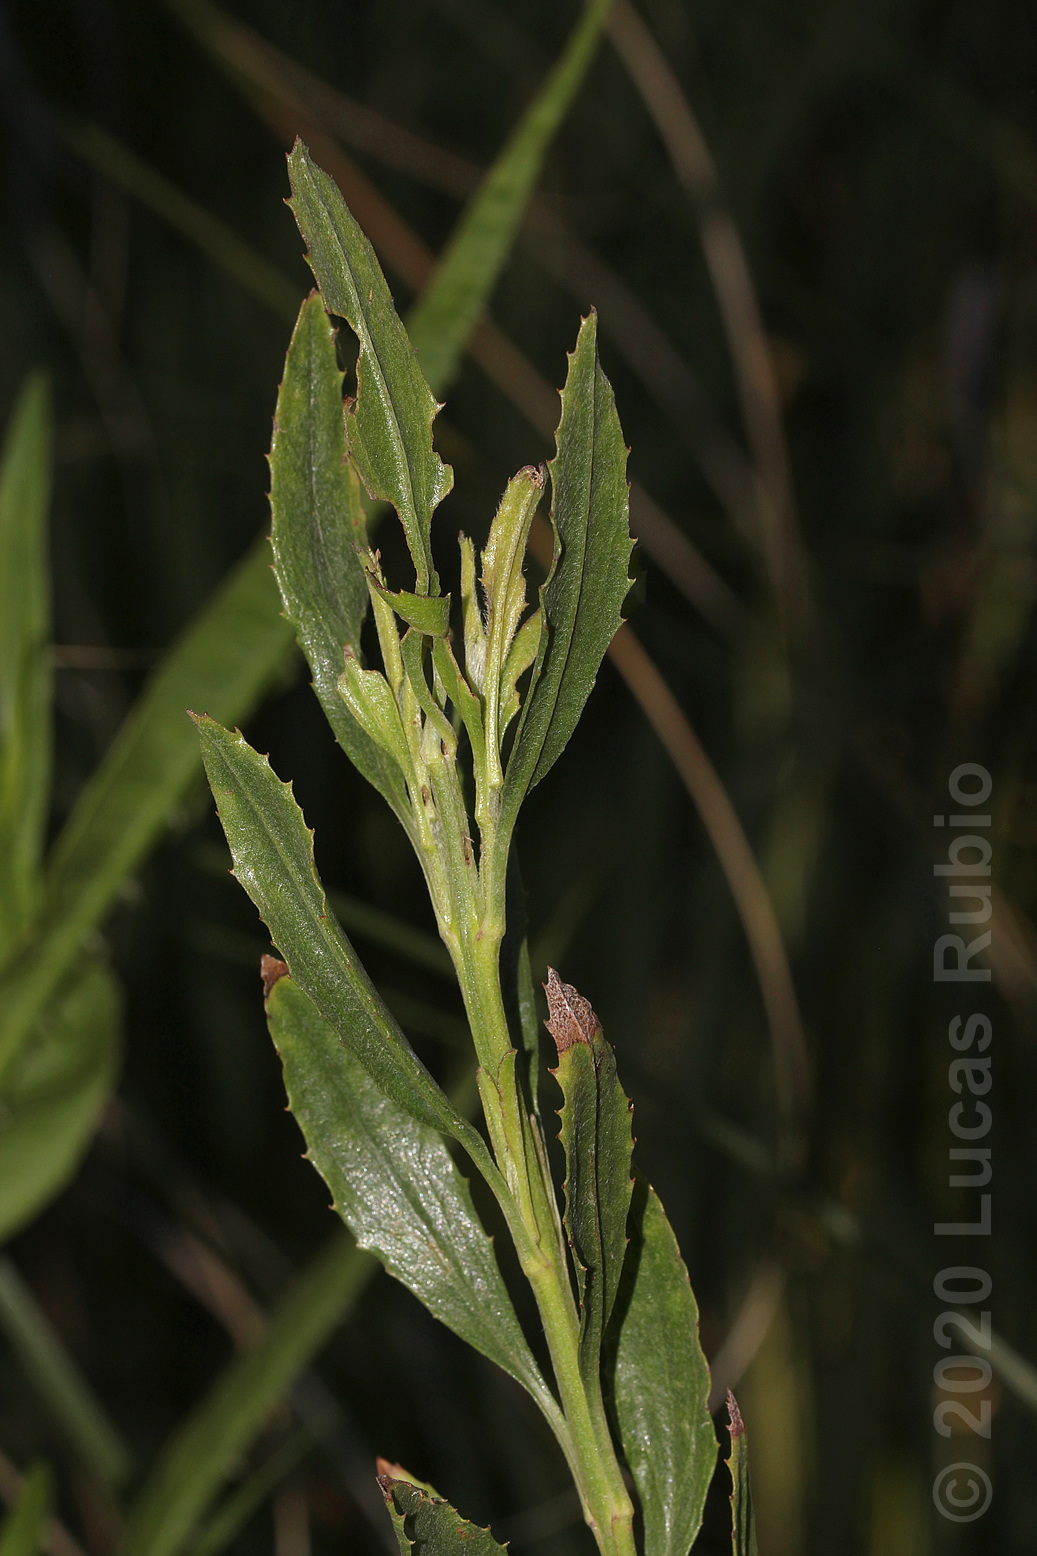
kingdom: Plantae
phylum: Tracheophyta
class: Magnoliopsida
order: Asterales
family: Asteraceae
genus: Baccharis
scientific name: Baccharis spicata
